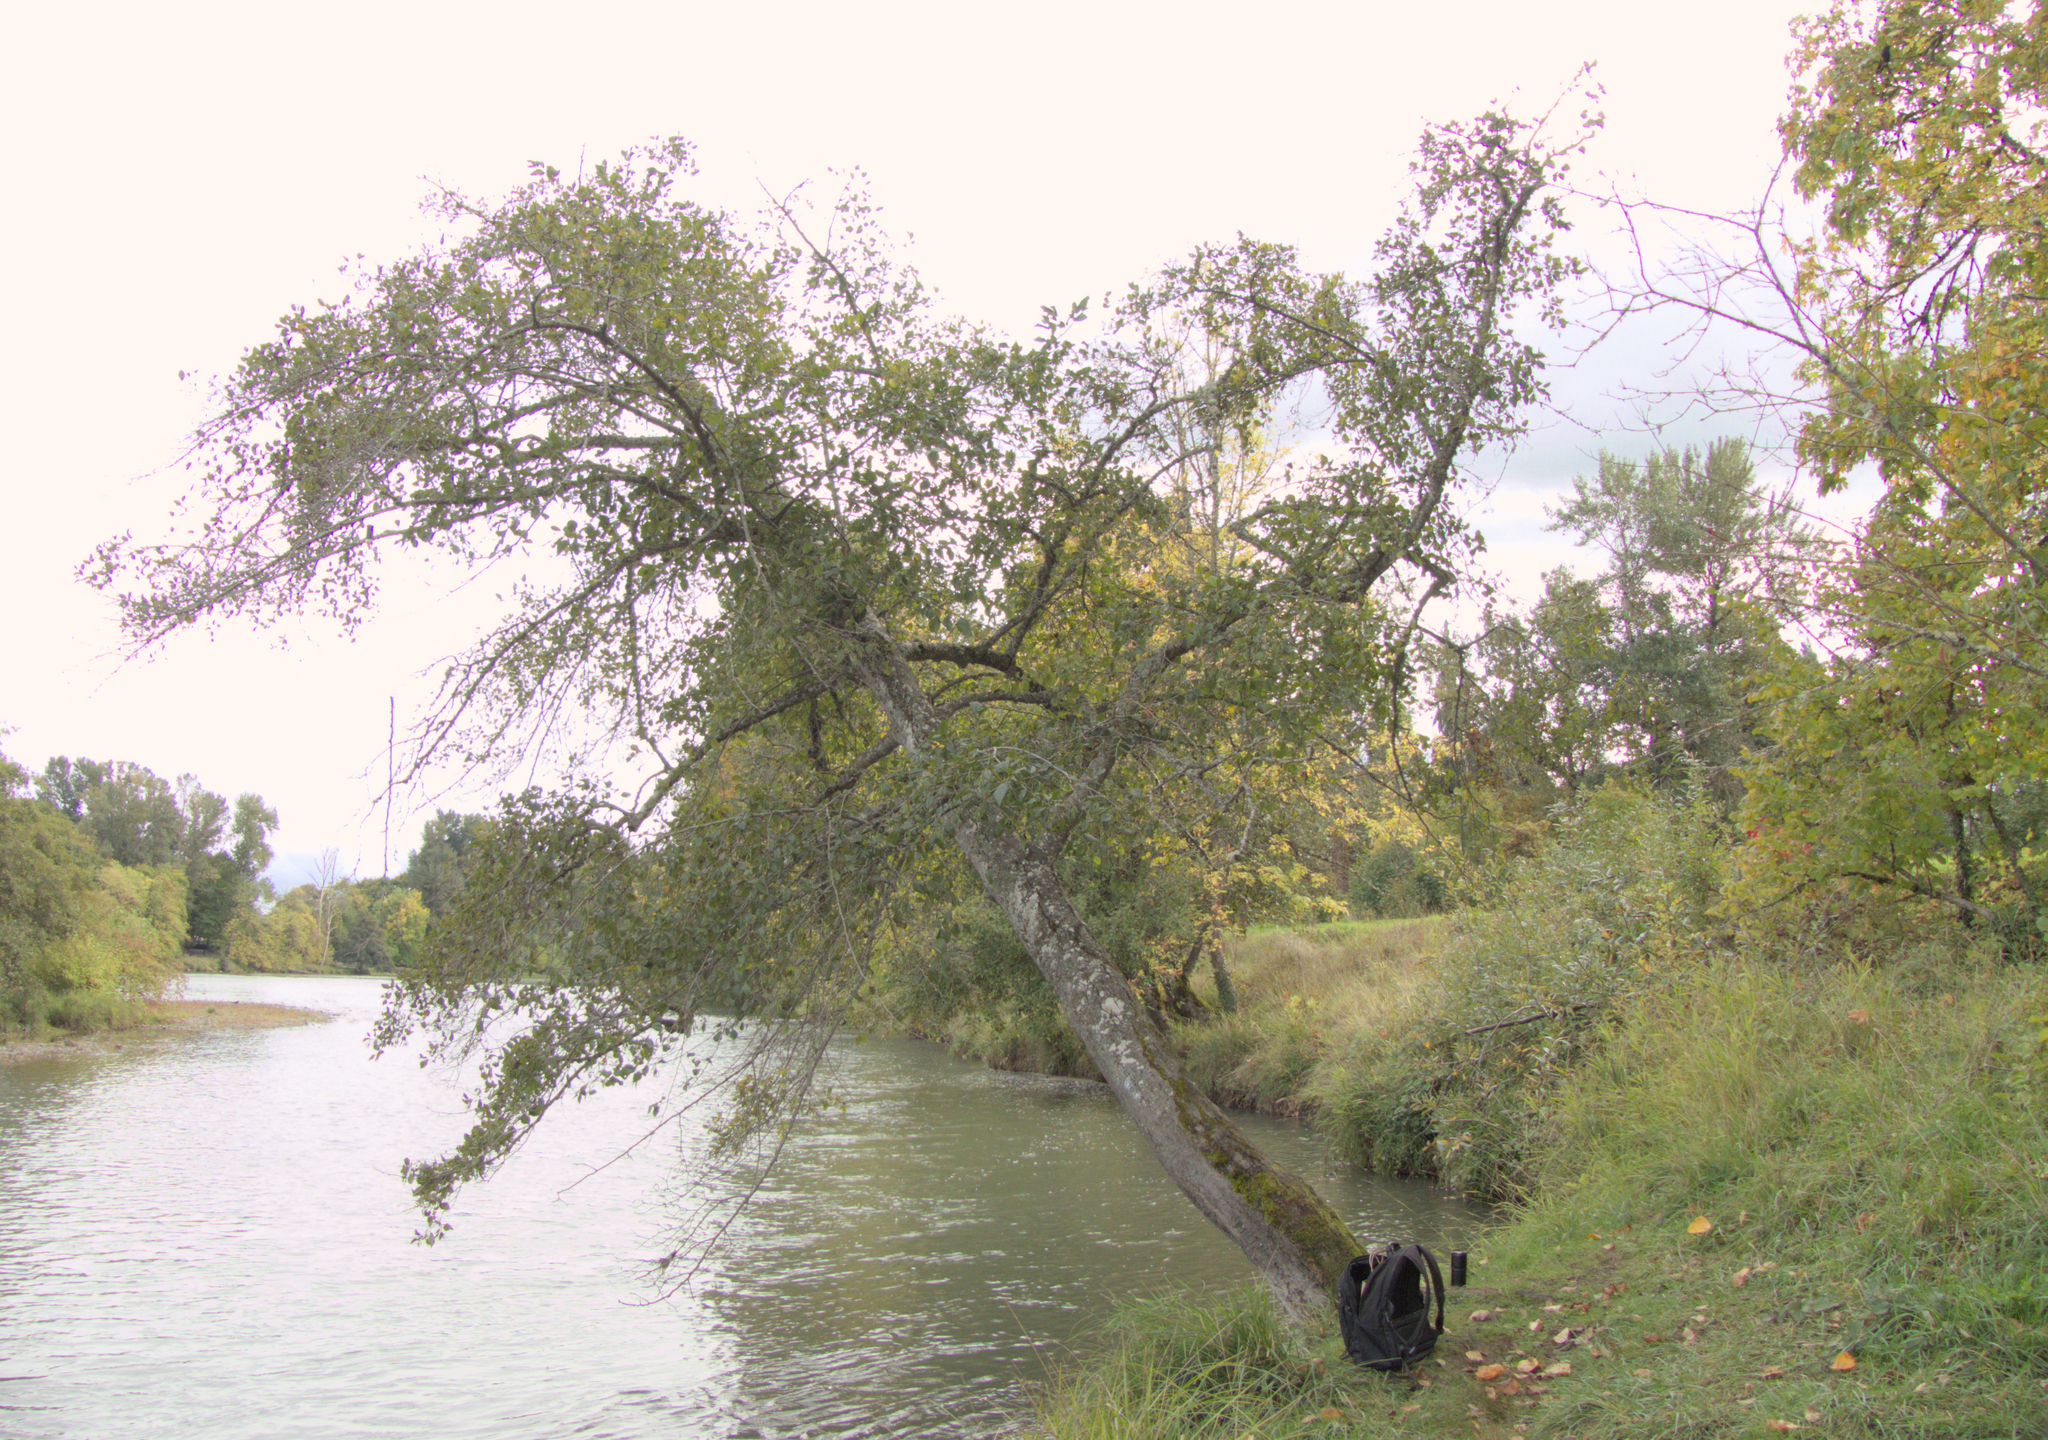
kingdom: Plantae
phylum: Tracheophyta
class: Magnoliopsida
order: Fagales
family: Betulaceae
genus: Alnus
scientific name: Alnus rhombifolia
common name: California alder
